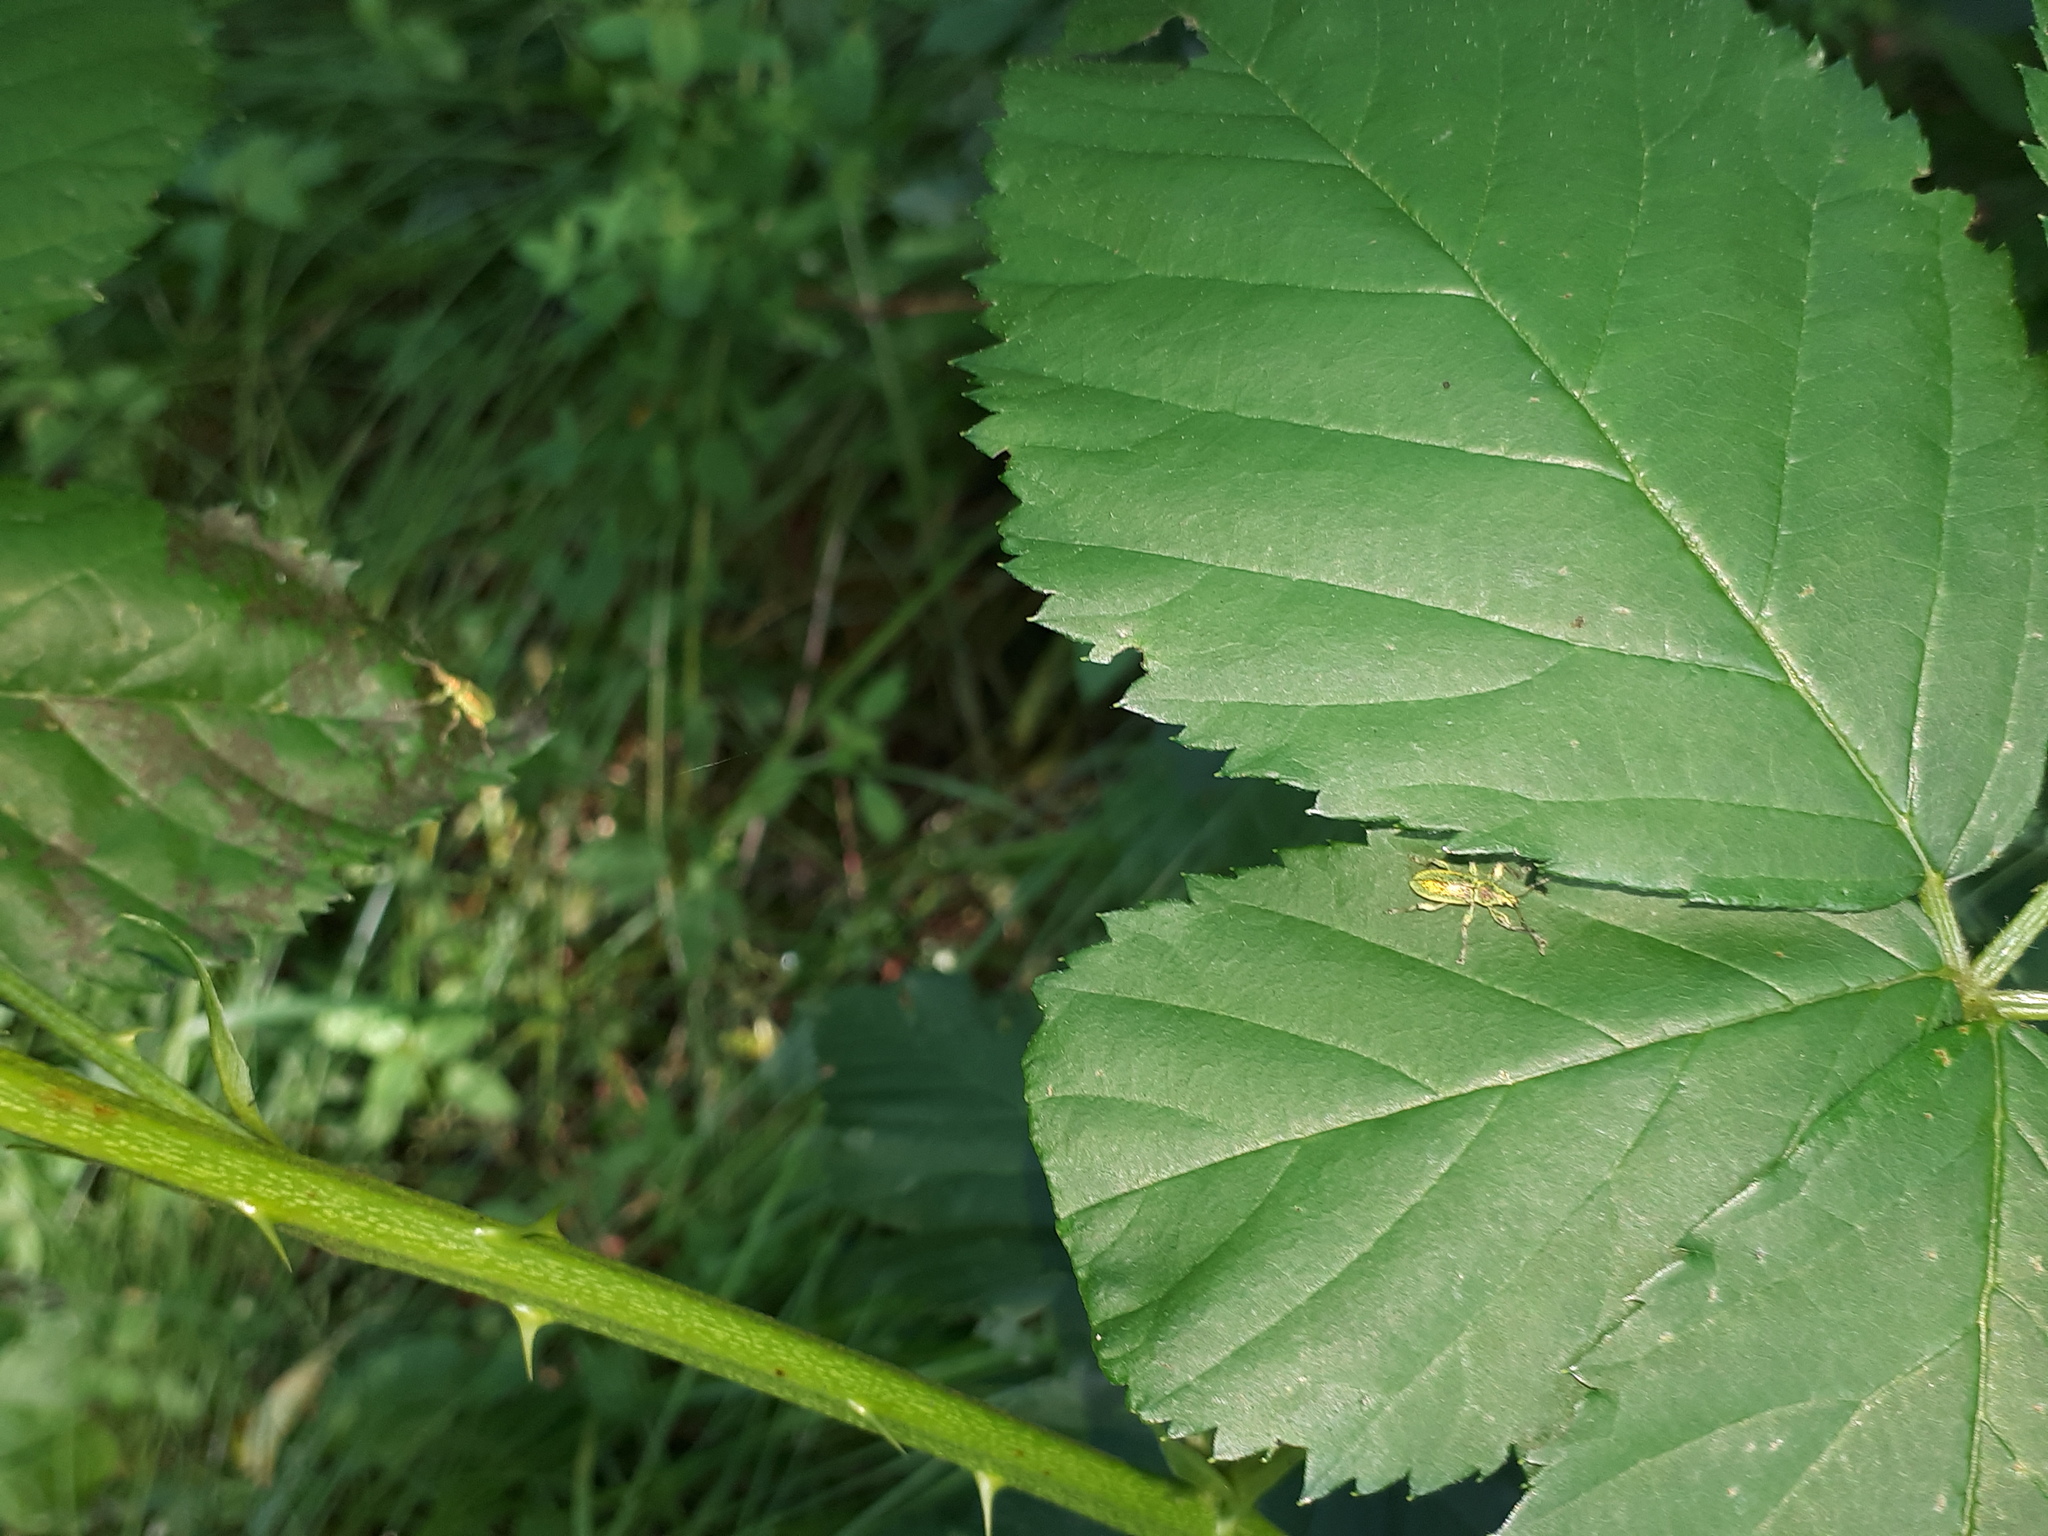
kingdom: Animalia
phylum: Arthropoda
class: Insecta
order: Coleoptera
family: Curculionidae
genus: Phyllobius
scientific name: Phyllobius arborator
